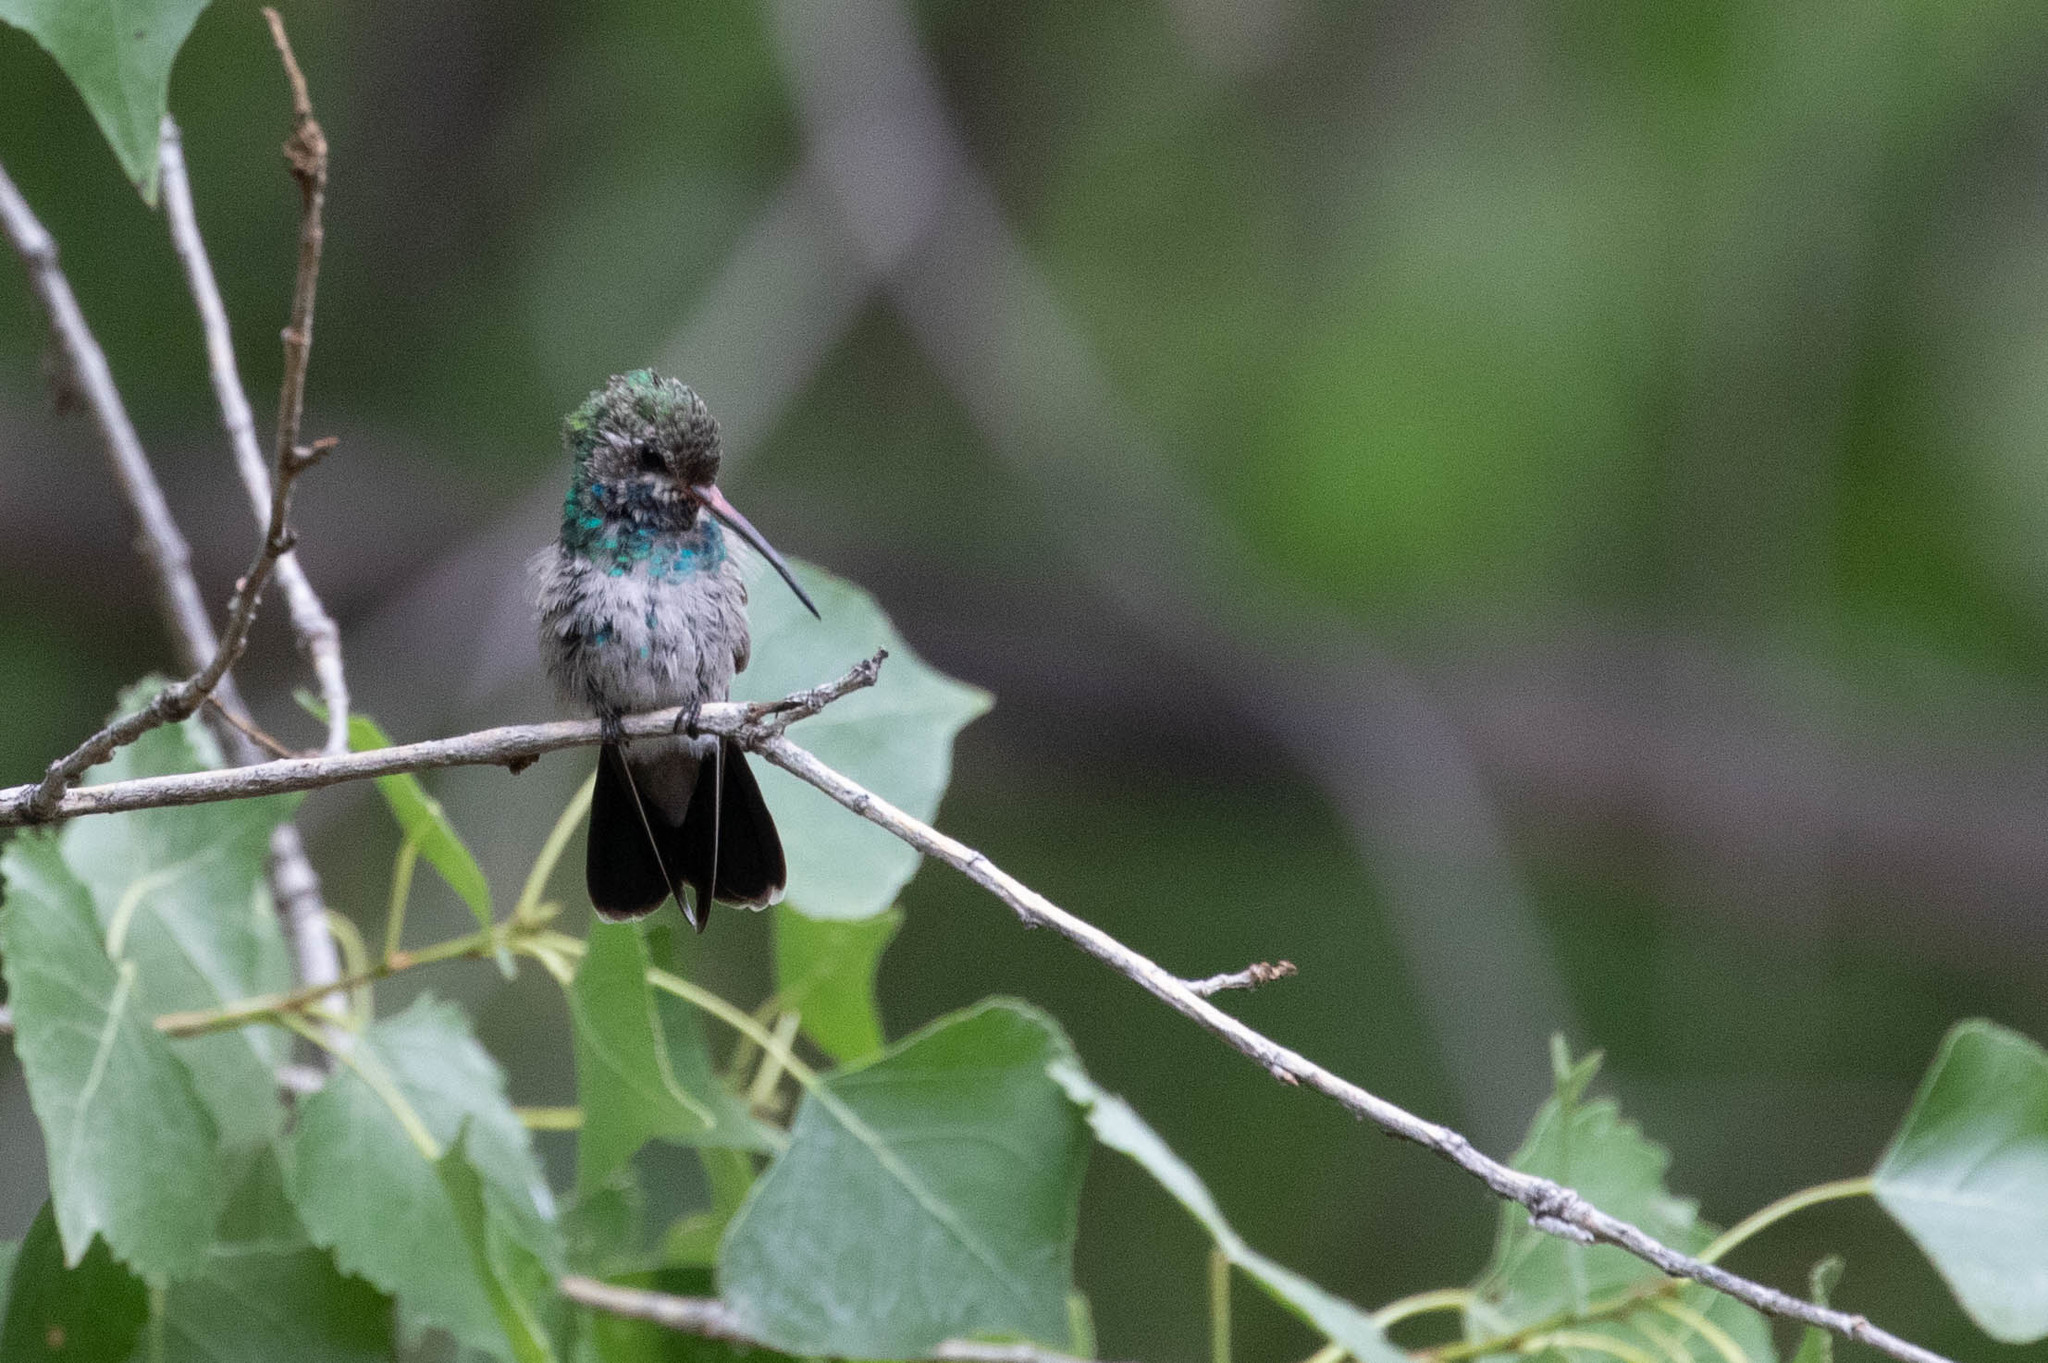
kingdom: Animalia
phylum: Chordata
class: Aves
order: Apodiformes
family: Trochilidae
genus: Cynanthus
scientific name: Cynanthus latirostris
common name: Broad-billed hummingbird
